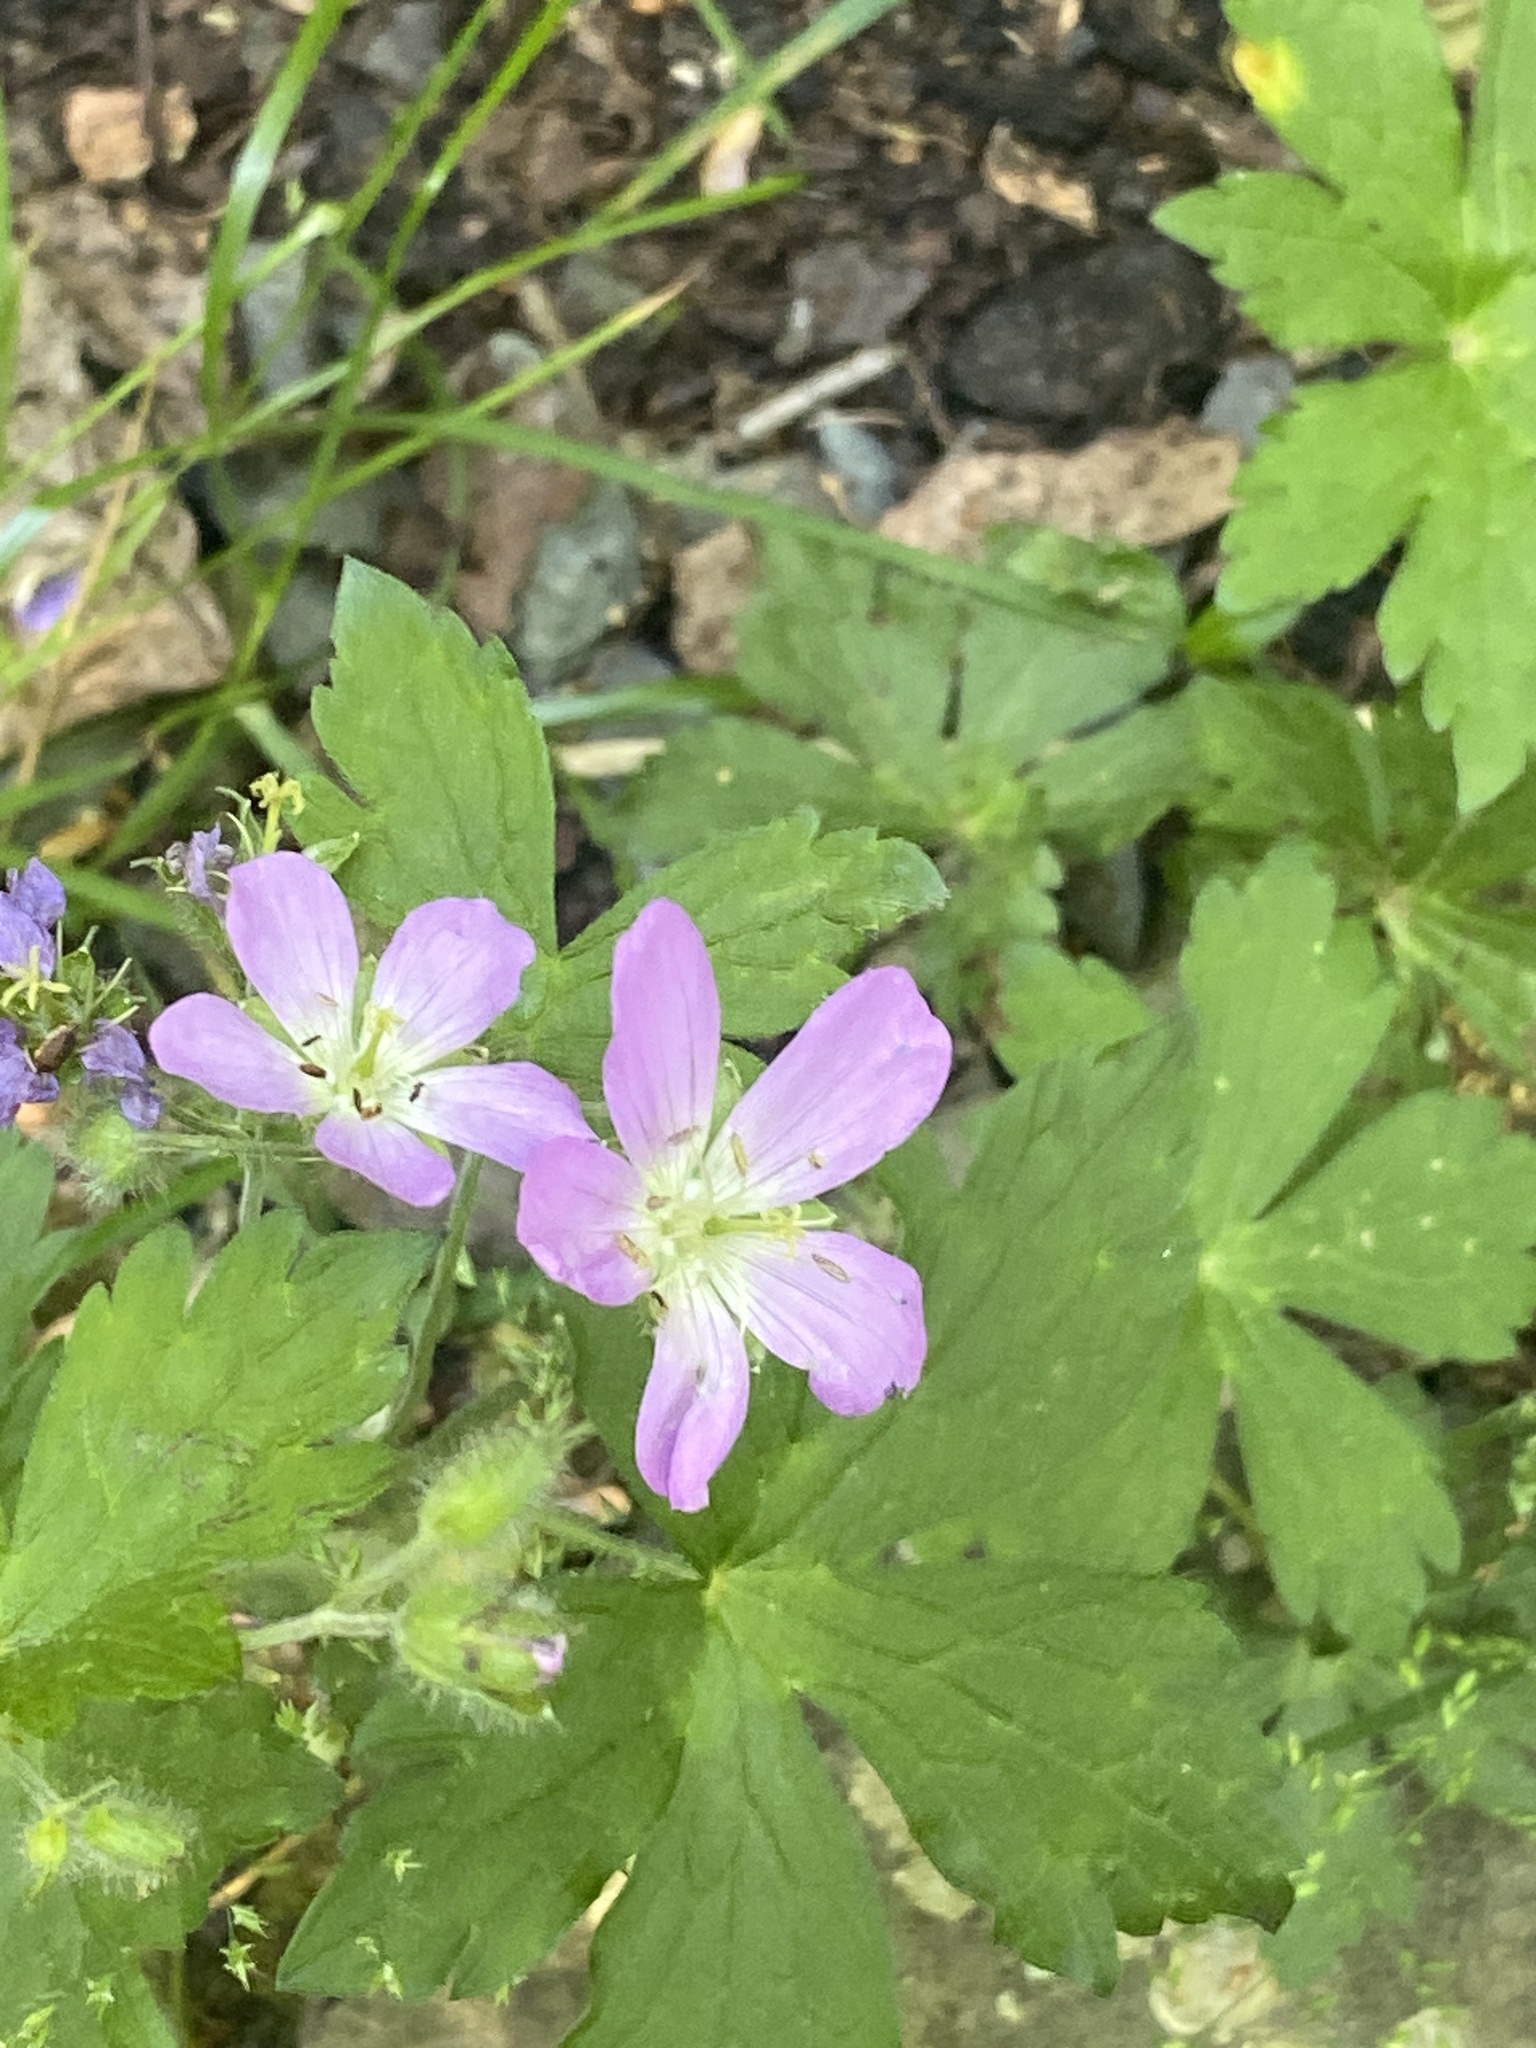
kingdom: Plantae
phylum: Tracheophyta
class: Magnoliopsida
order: Geraniales
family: Geraniaceae
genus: Geranium
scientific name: Geranium maculatum
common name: Spotted geranium
